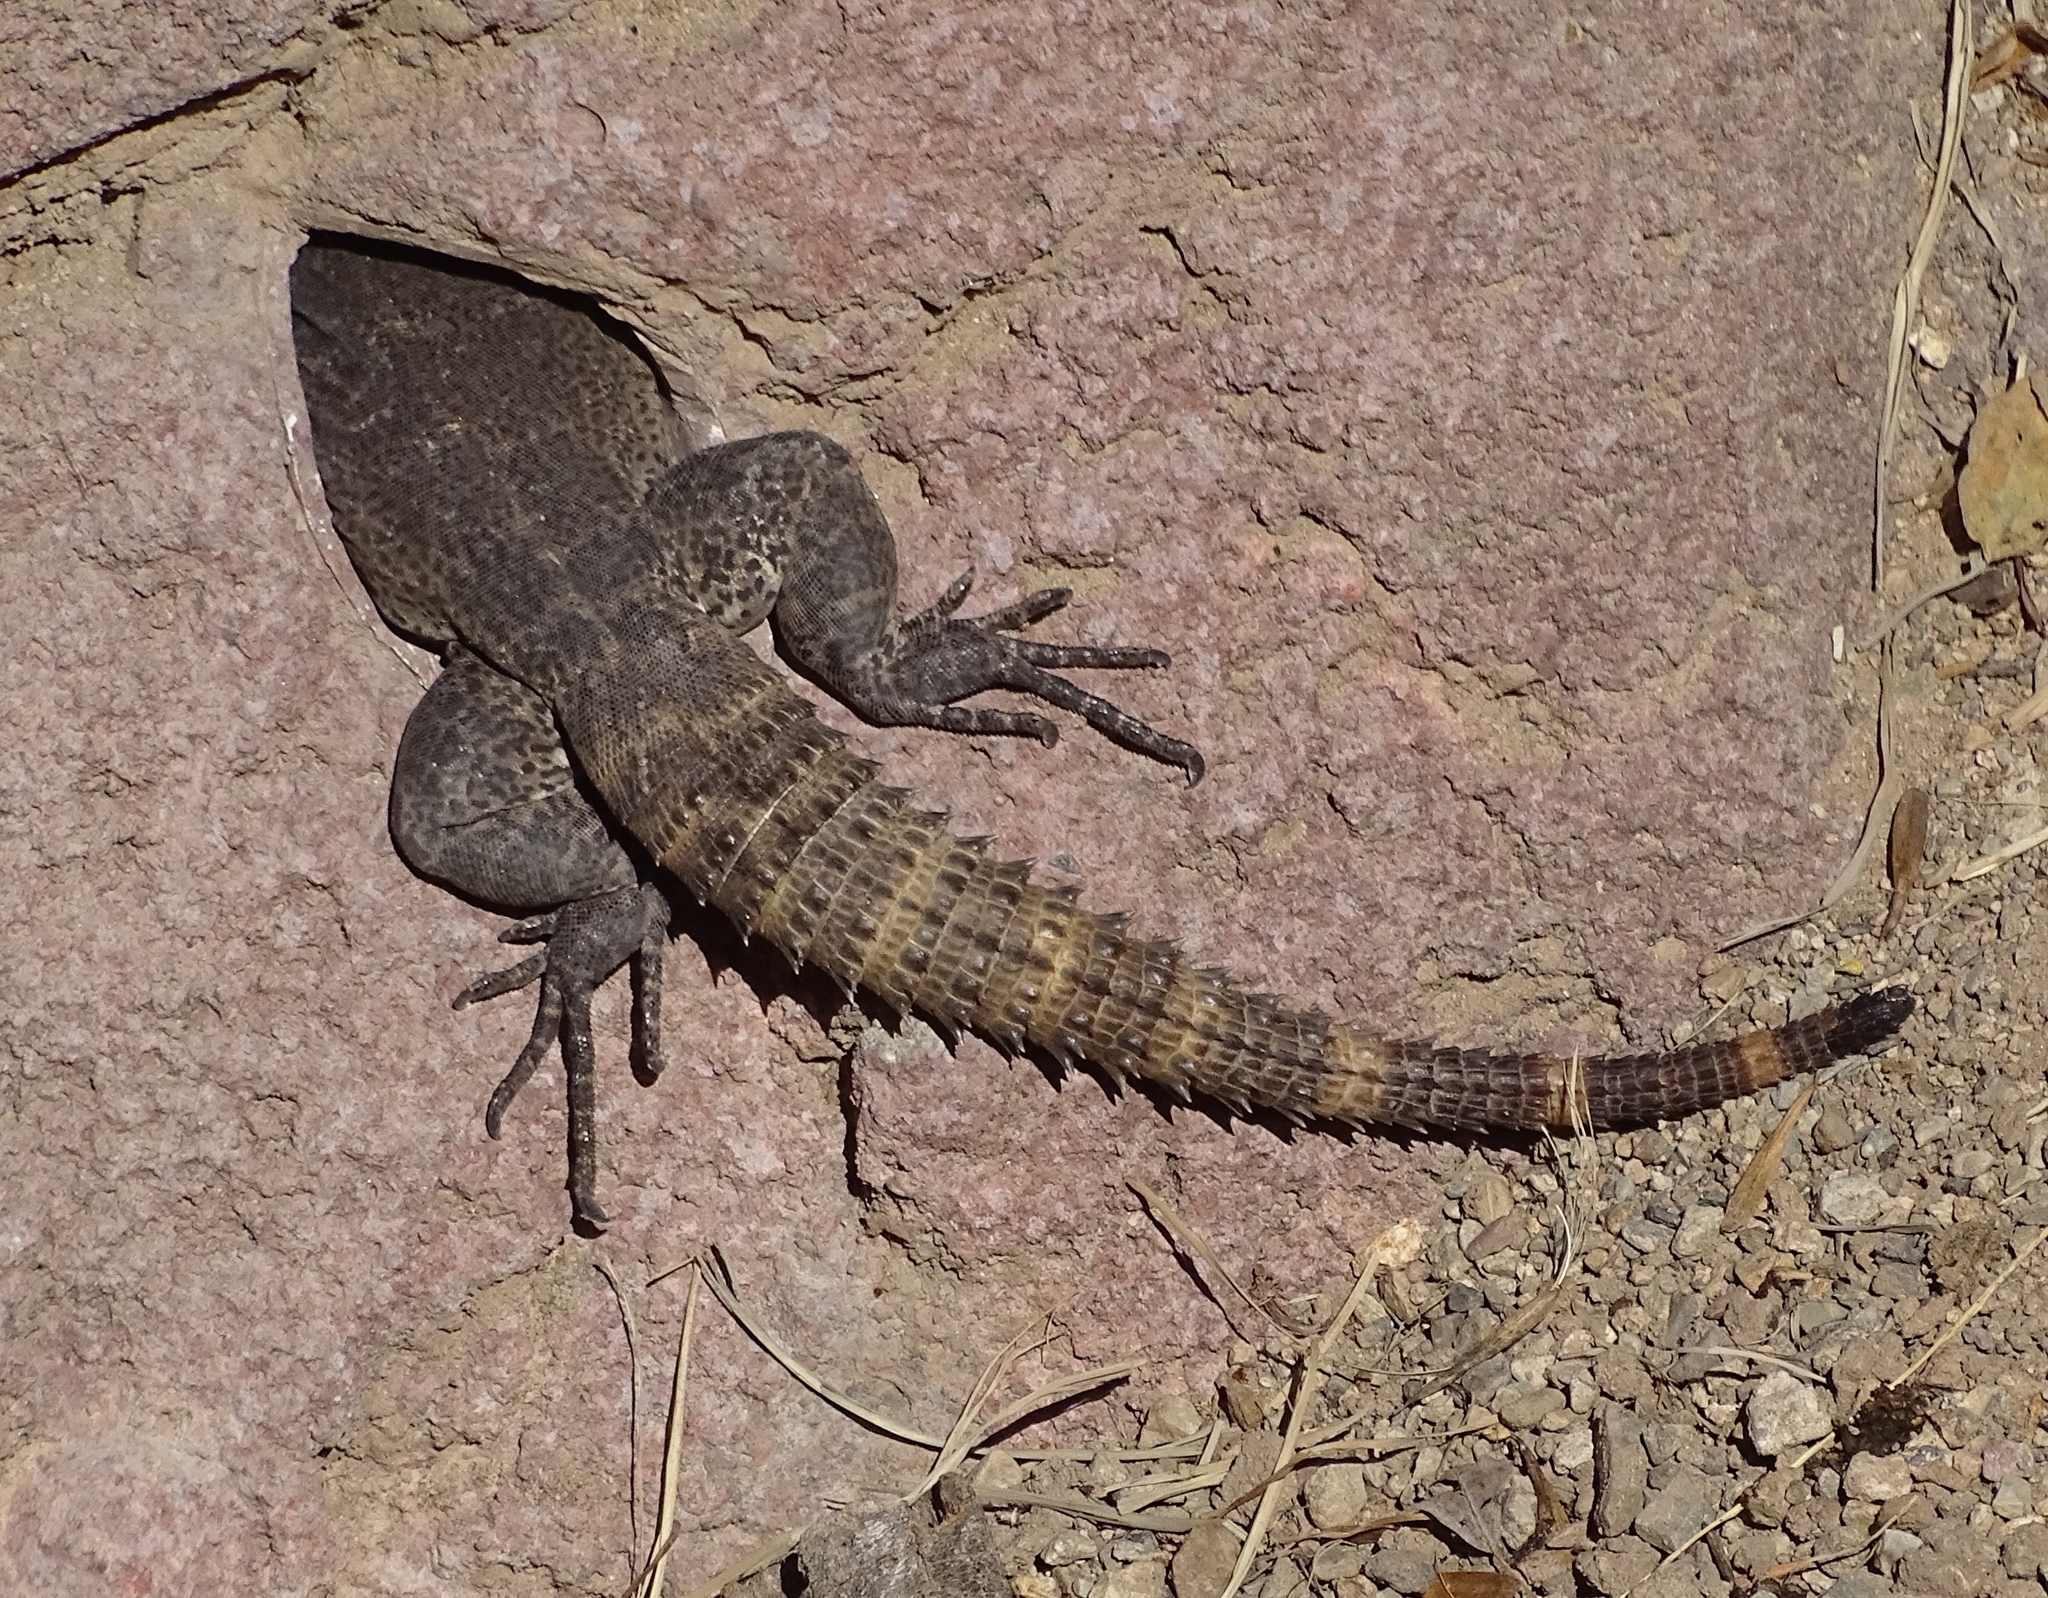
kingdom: Animalia
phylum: Chordata
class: Squamata
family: Iguanidae
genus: Ctenosaura
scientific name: Ctenosaura
